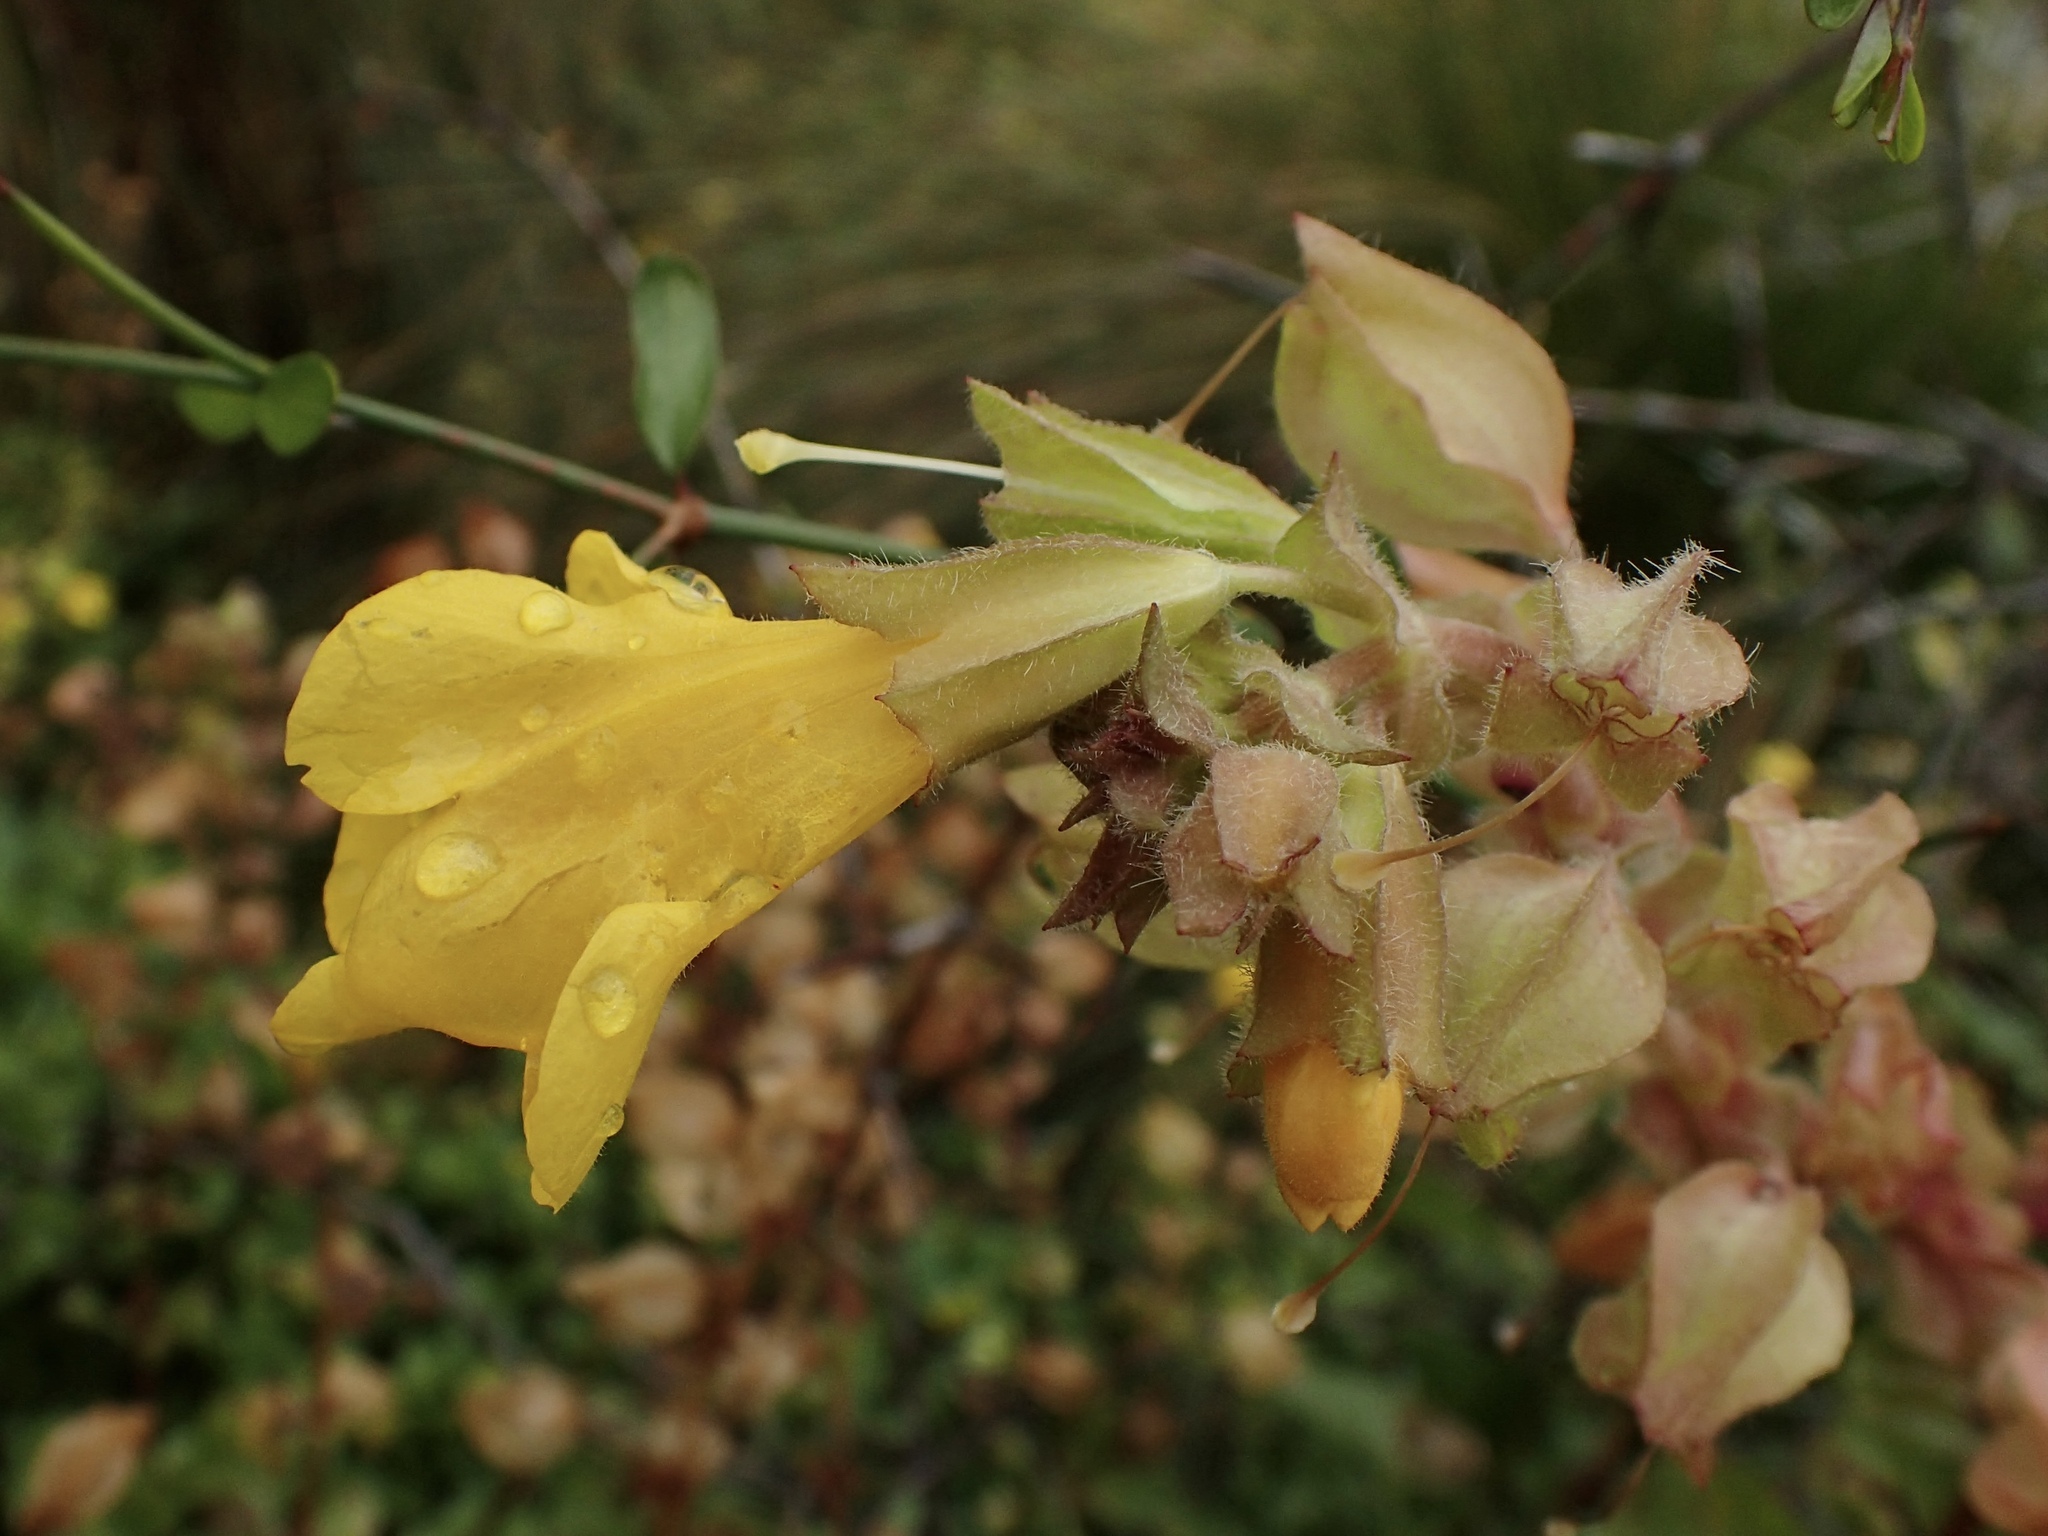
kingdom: Plantae
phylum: Tracheophyta
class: Magnoliopsida
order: Lamiales
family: Phrymaceae
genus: Erythranthe
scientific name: Erythranthe guttata
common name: Monkeyflower
